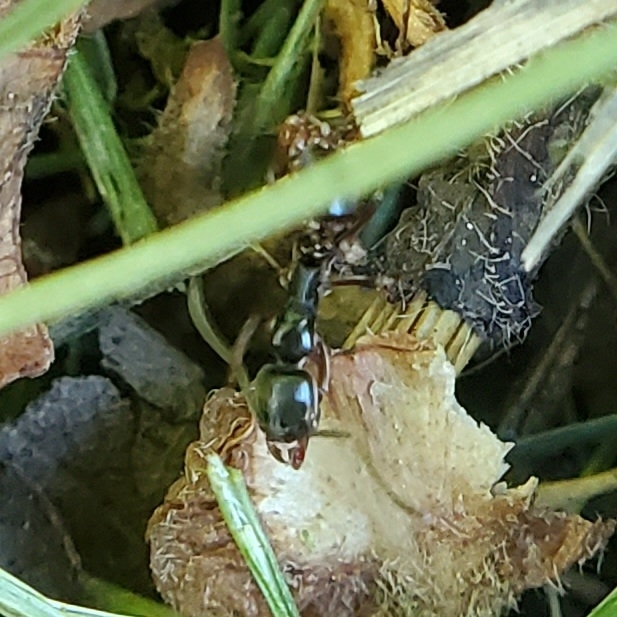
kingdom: Animalia
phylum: Arthropoda
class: Insecta
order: Hymenoptera
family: Formicidae
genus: Pachycondyla
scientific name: Pachycondyla chinensis
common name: Asian needle ant
